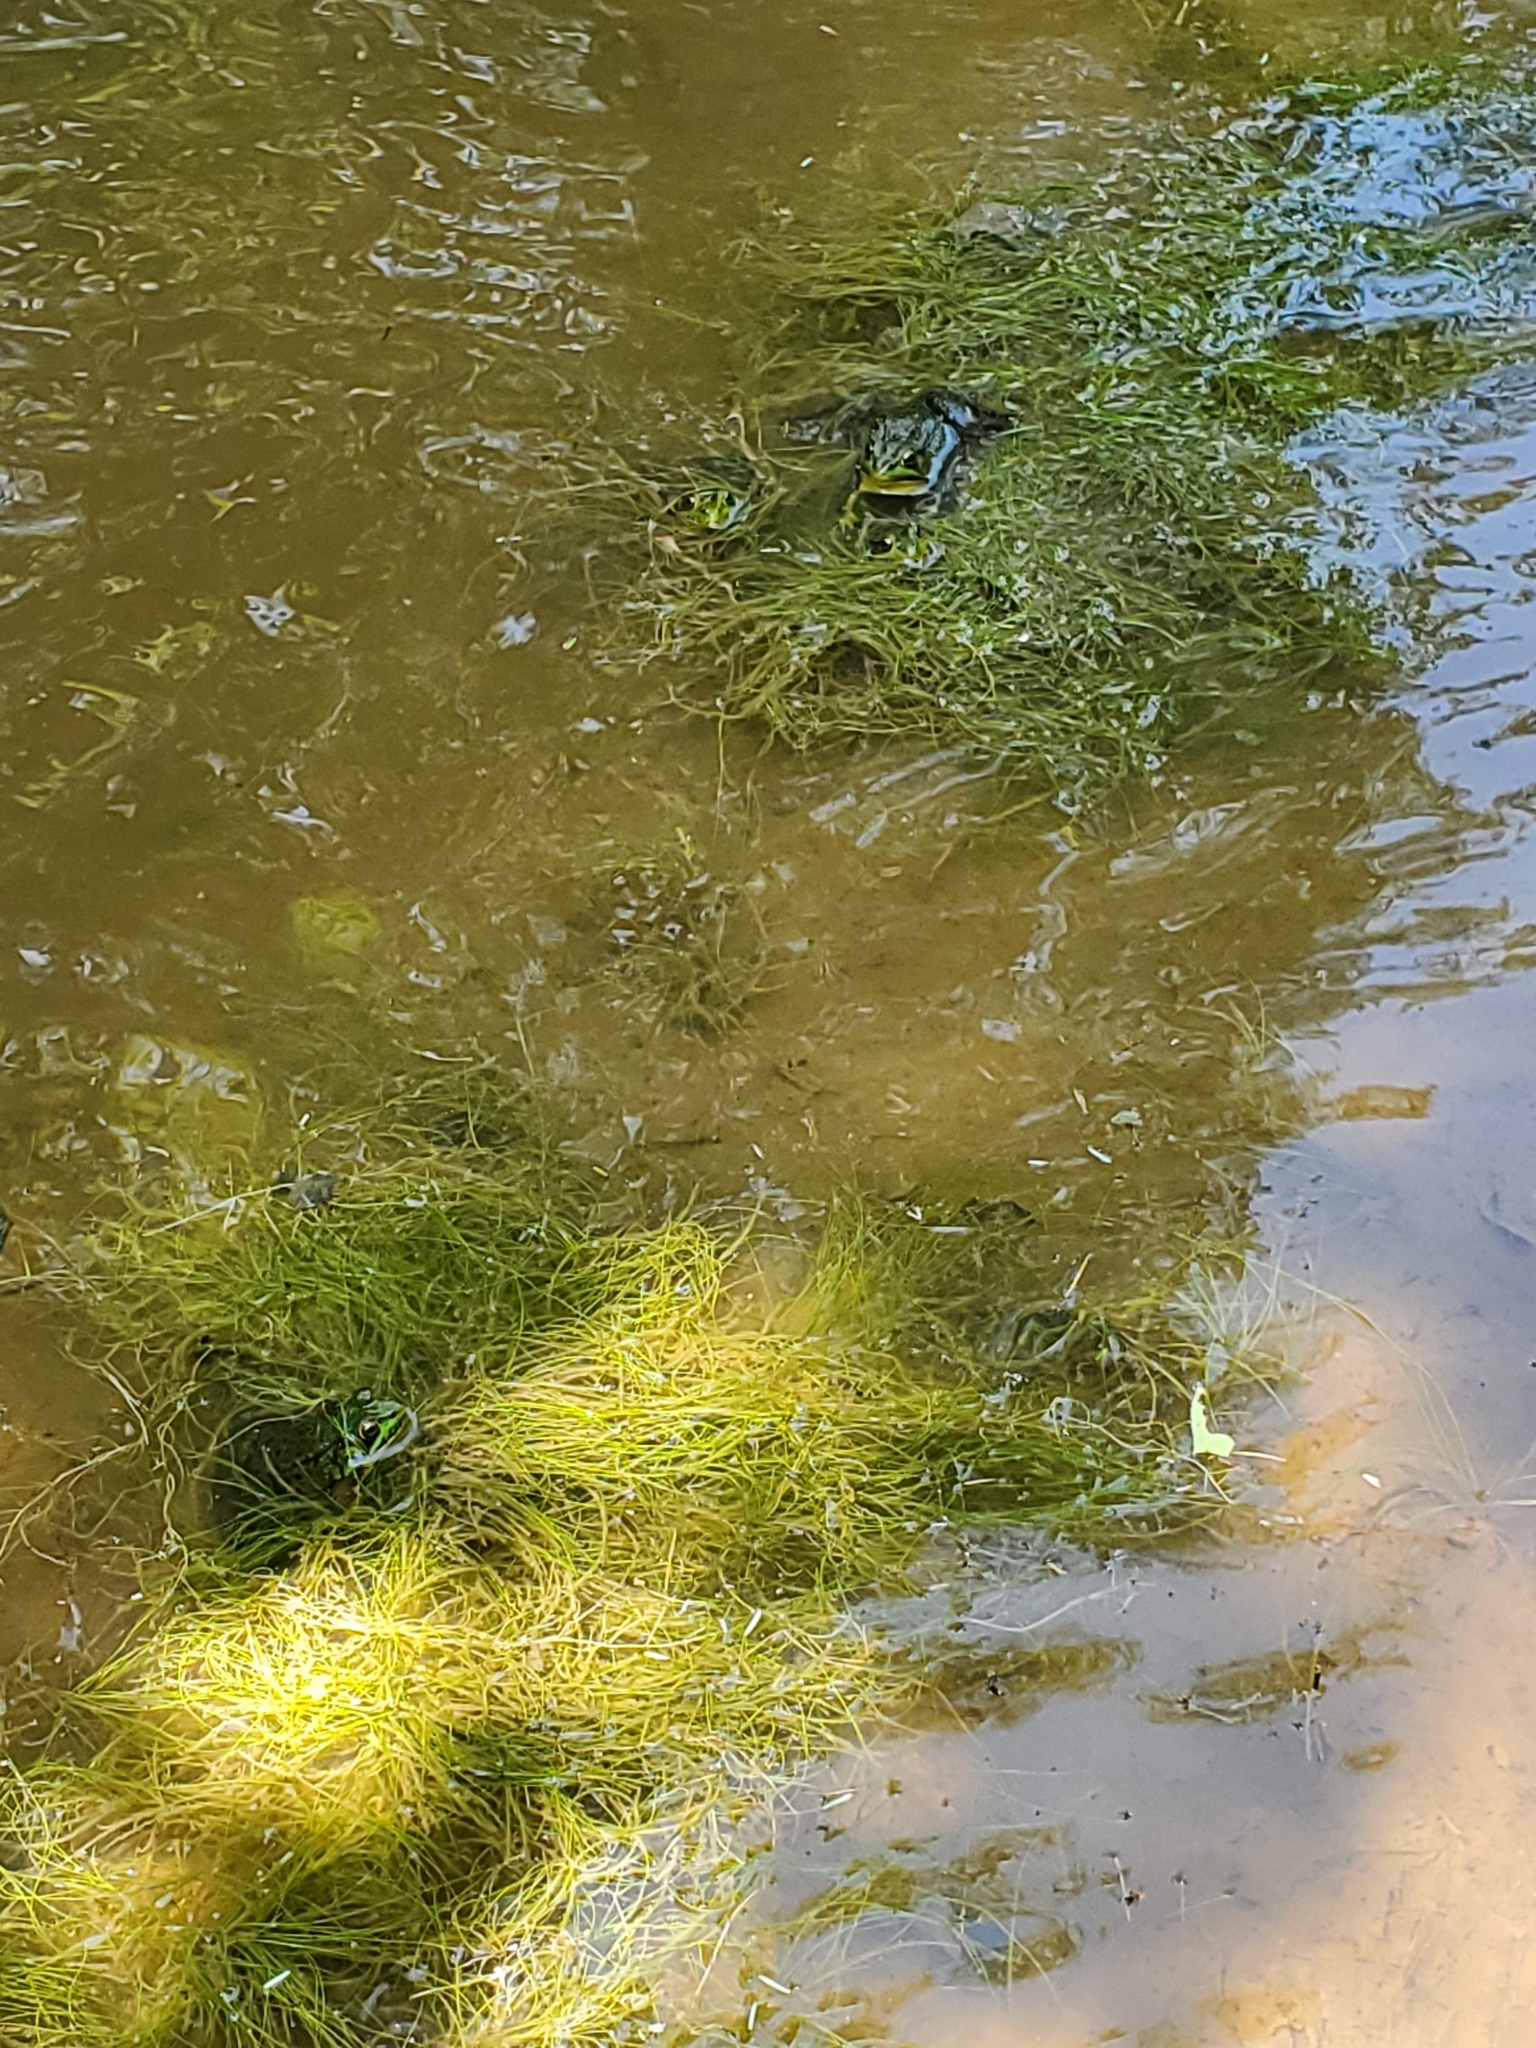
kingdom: Animalia
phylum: Chordata
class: Amphibia
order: Anura
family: Ranidae
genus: Lithobates
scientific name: Lithobates clamitans
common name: Green frog
